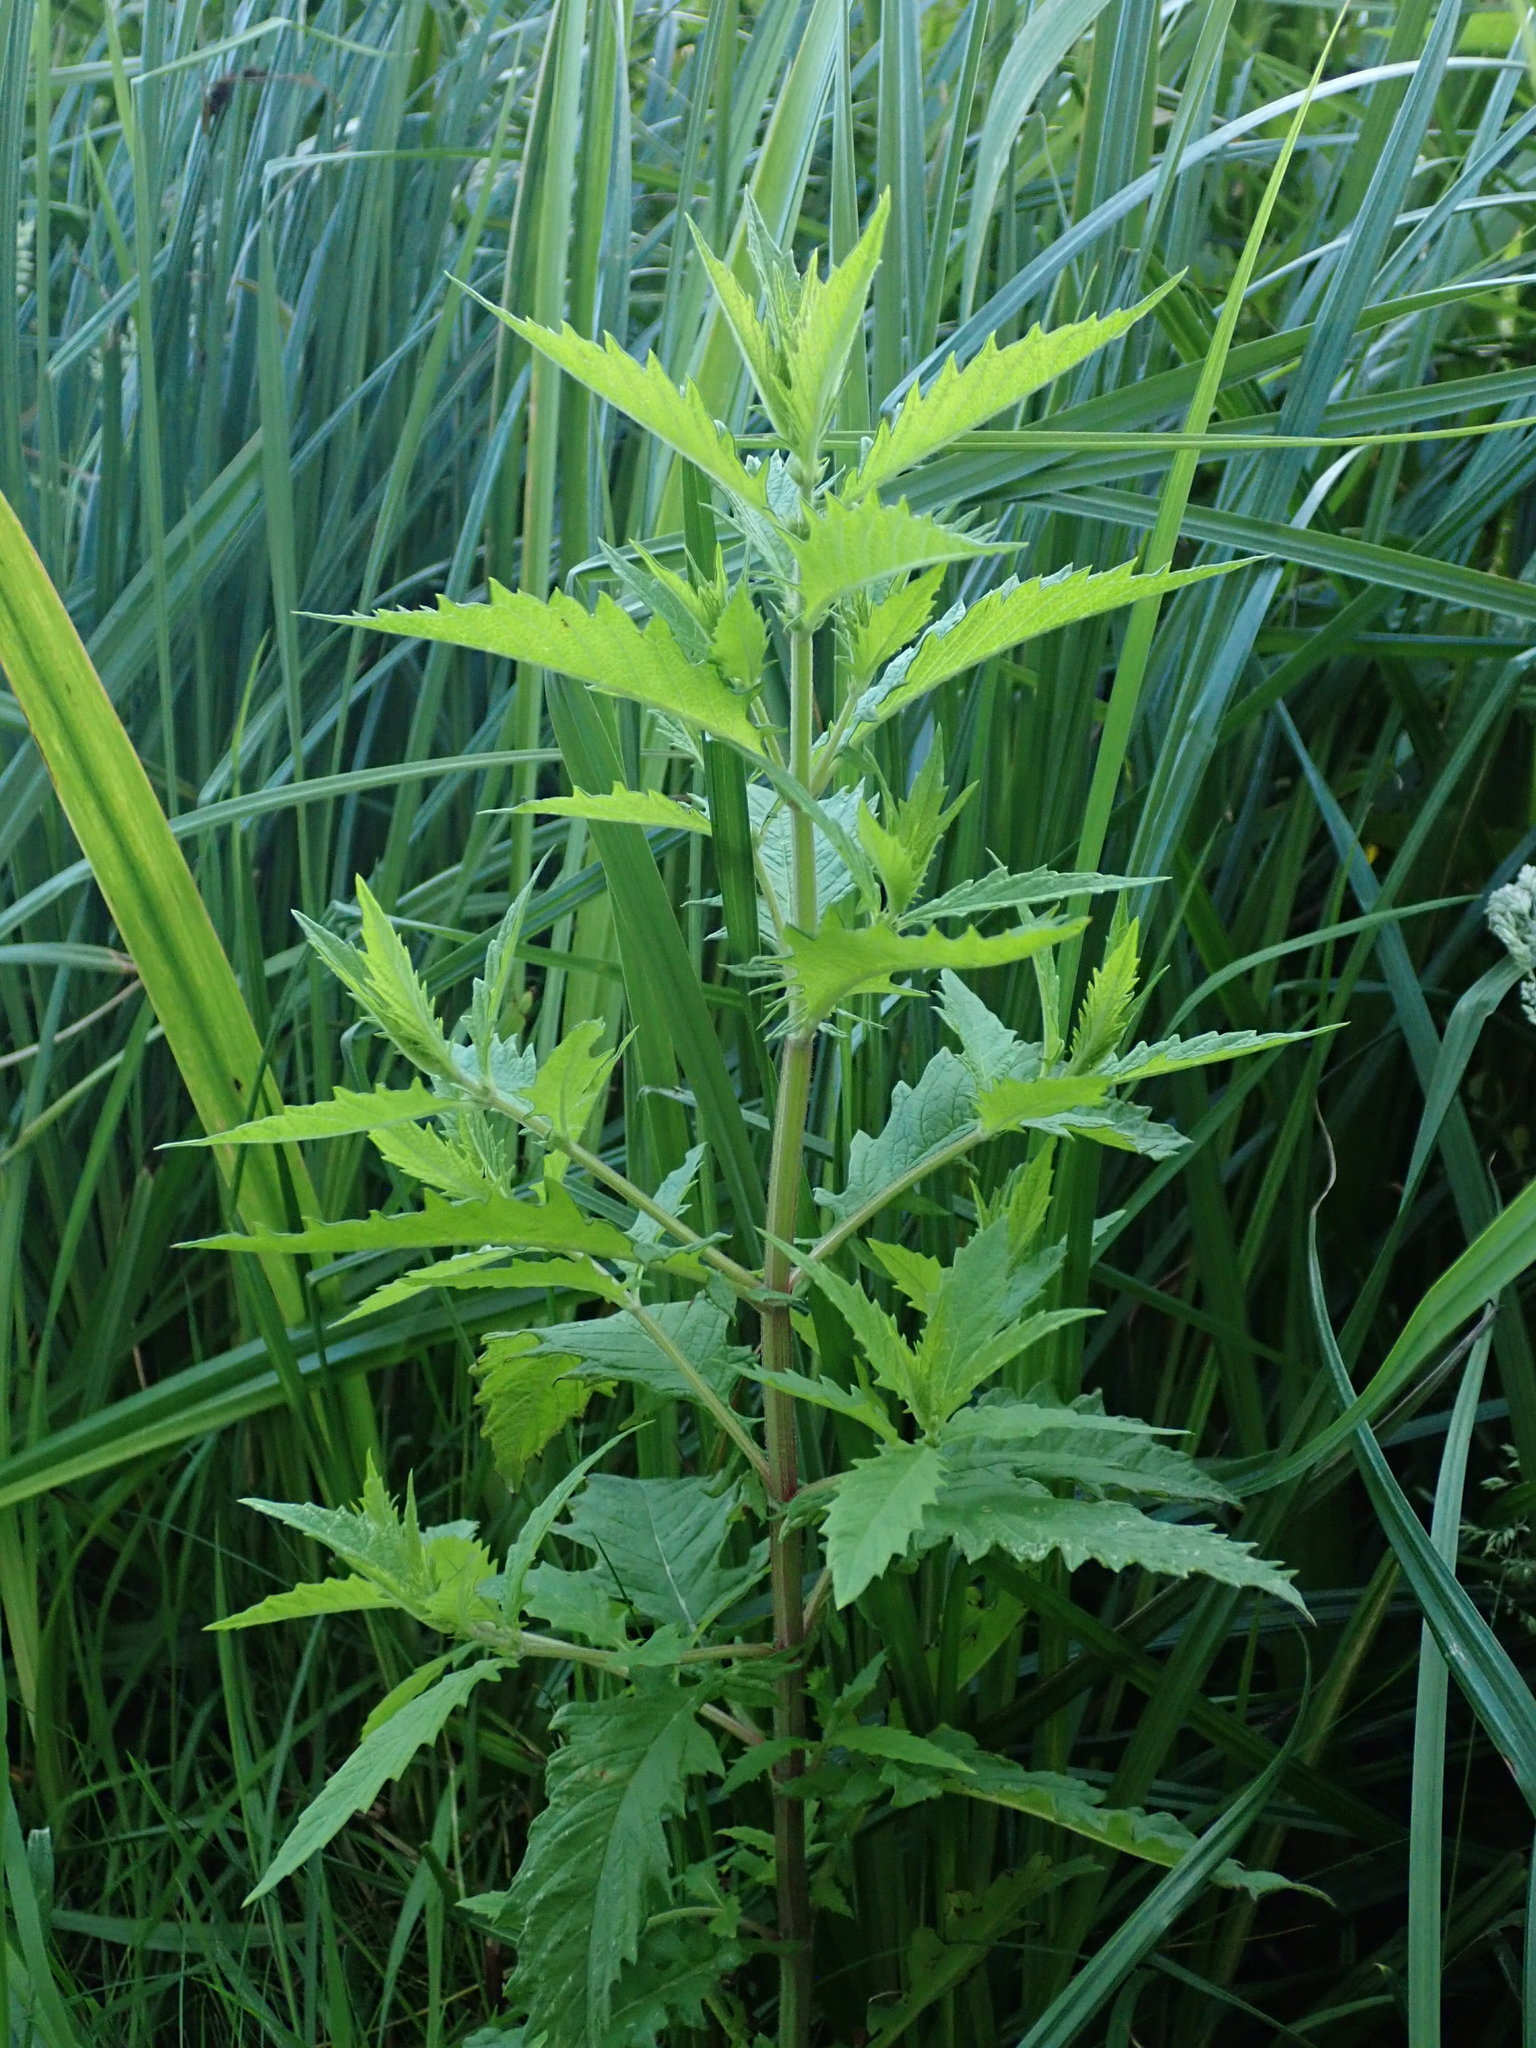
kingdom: Plantae
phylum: Tracheophyta
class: Magnoliopsida
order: Lamiales
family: Lamiaceae
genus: Lycopus
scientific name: Lycopus europaeus
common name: European bugleweed
